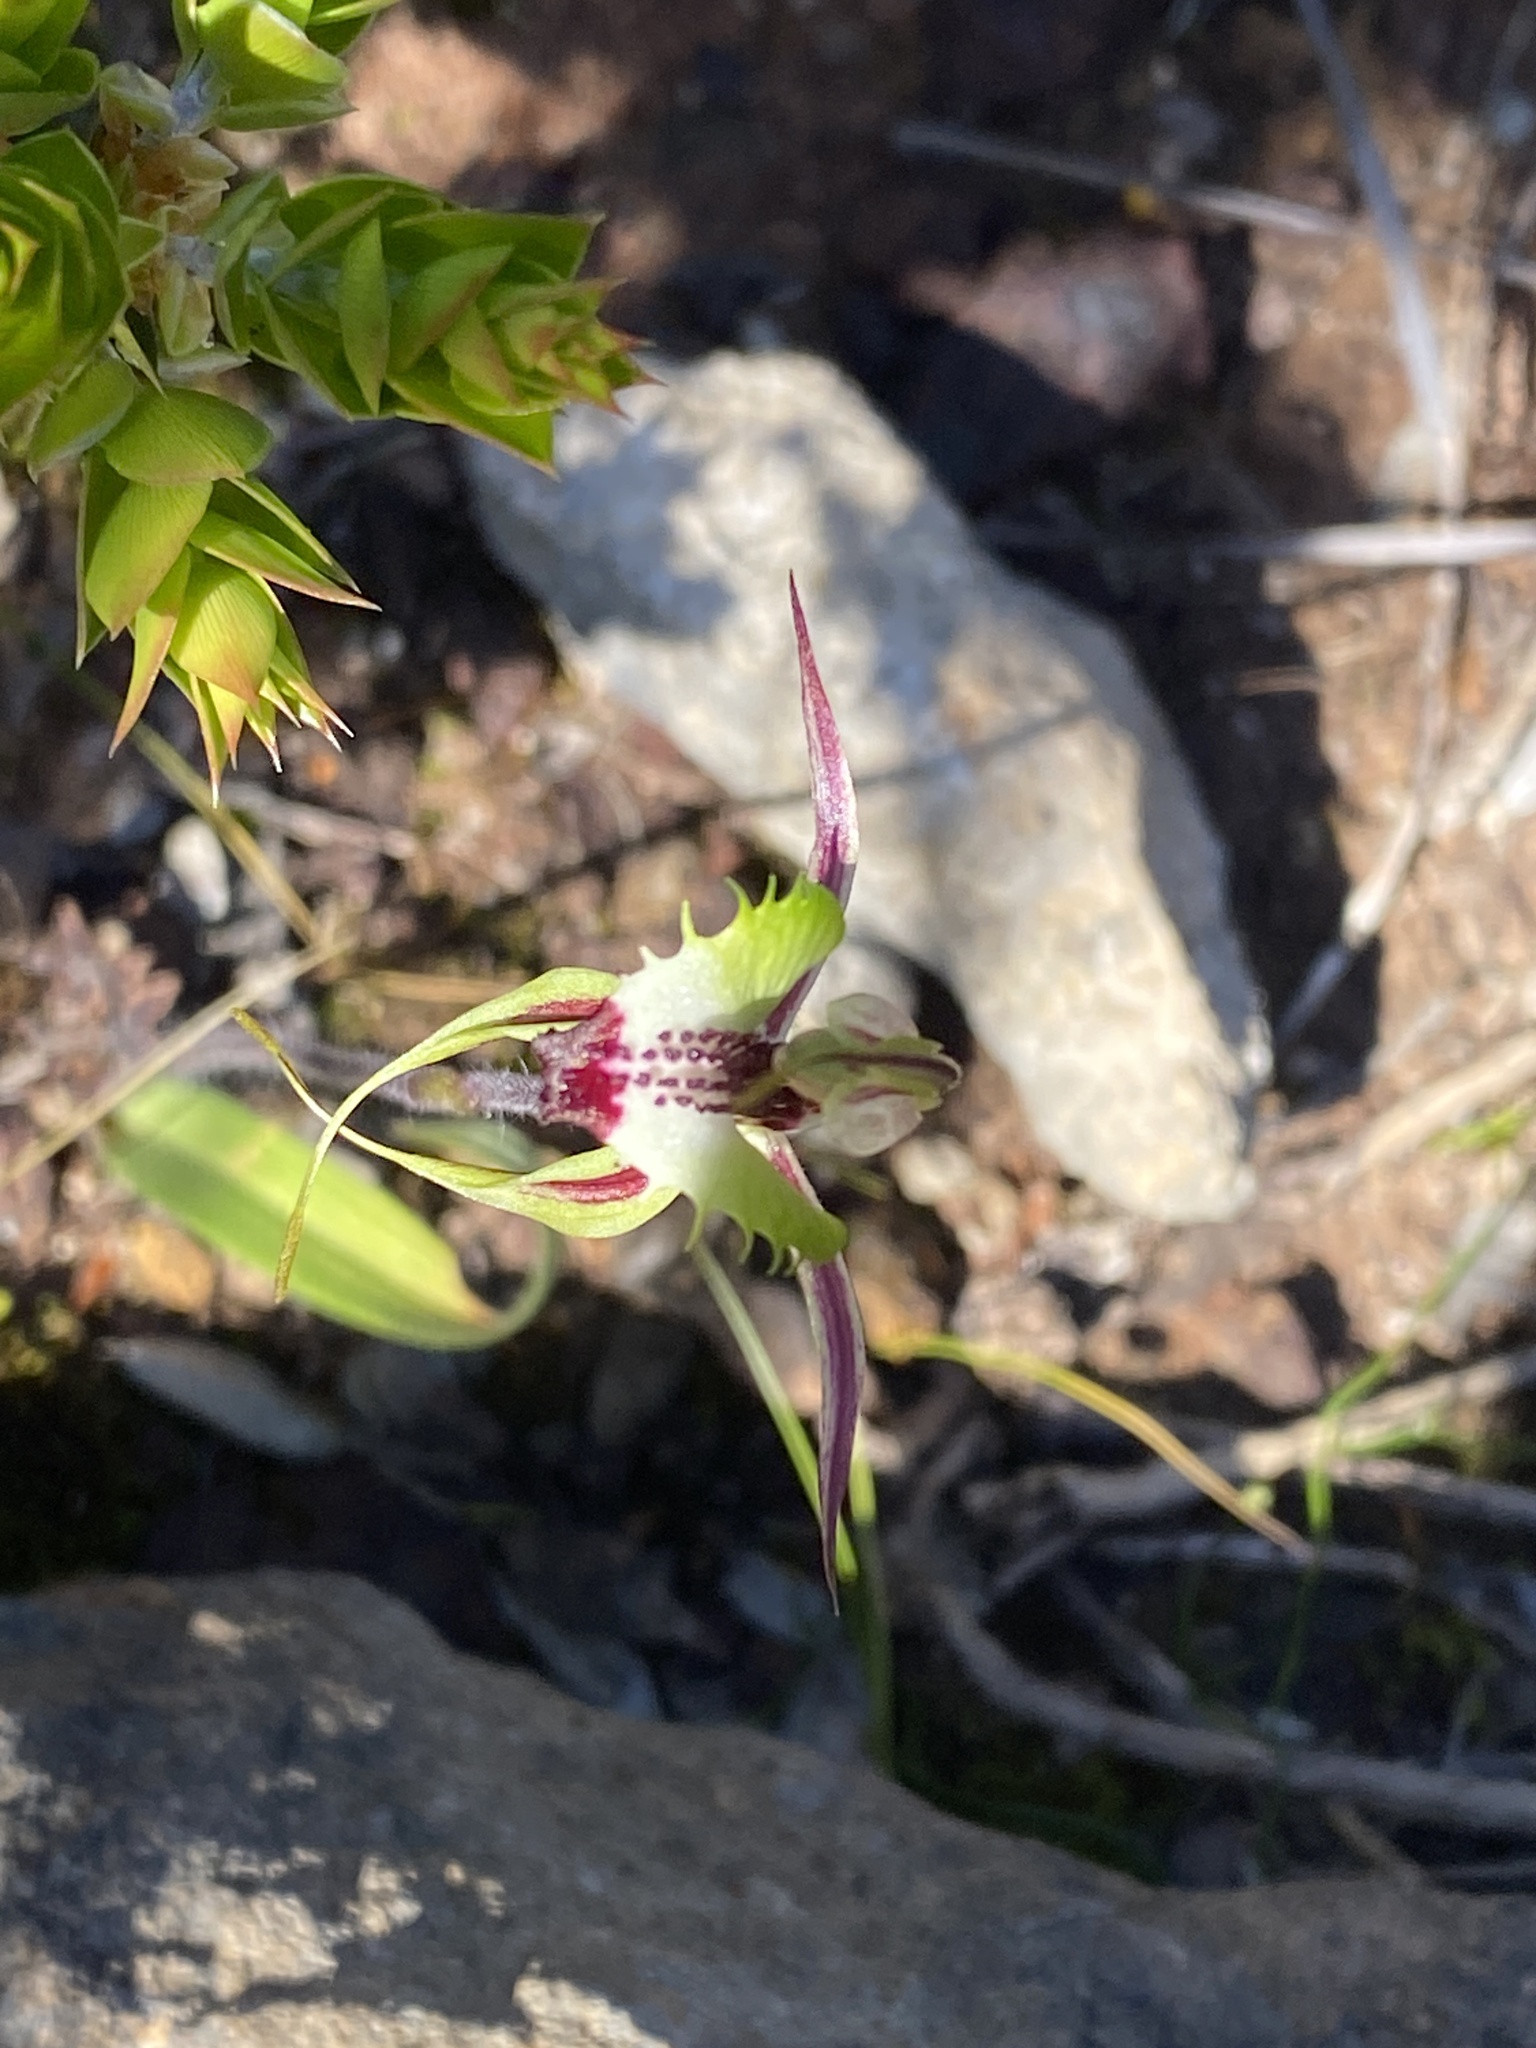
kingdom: Plantae
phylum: Tracheophyta
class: Liliopsida
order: Asparagales
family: Orchidaceae
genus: Caladenia
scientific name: Caladenia campestris
